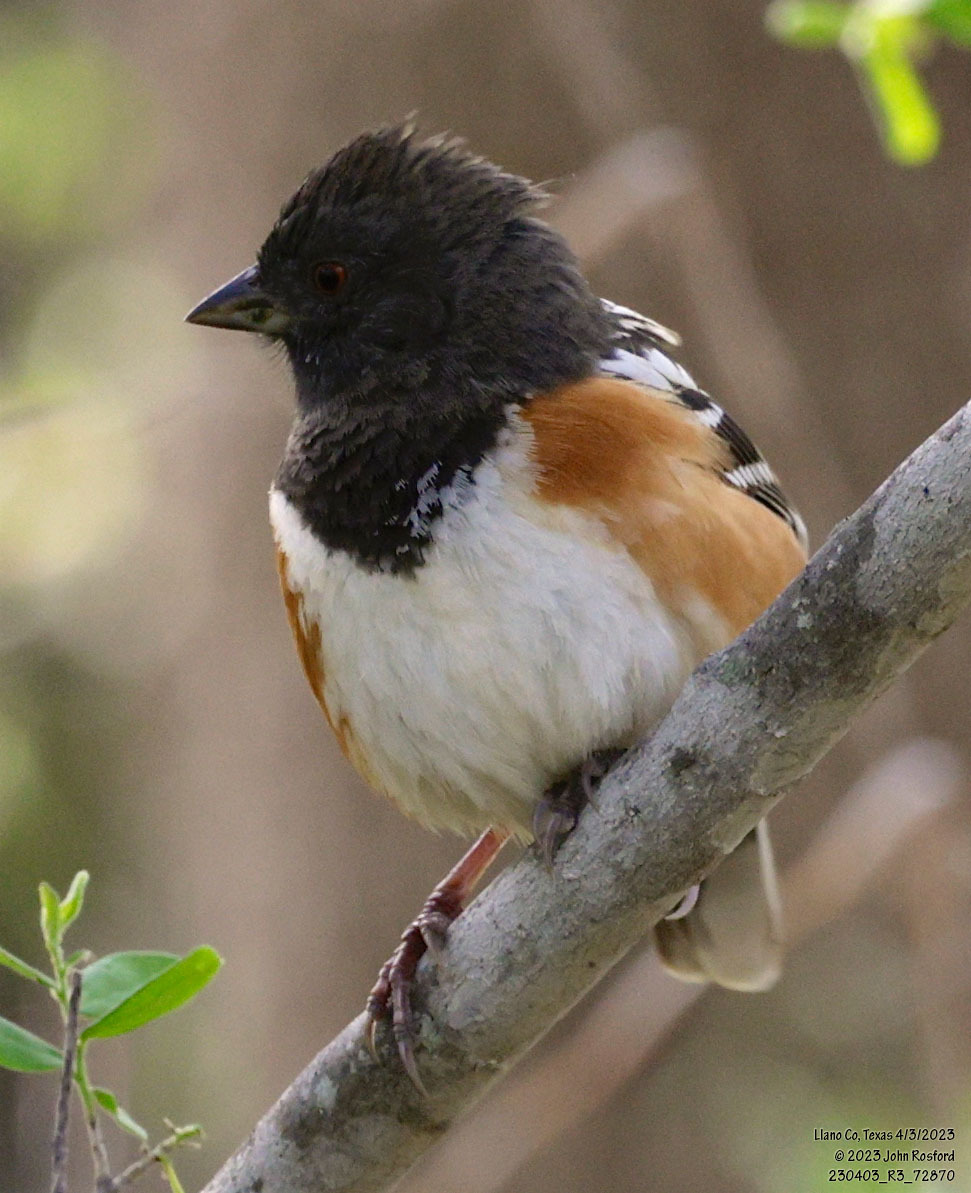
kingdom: Animalia
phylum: Chordata
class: Aves
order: Passeriformes
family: Passerellidae
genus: Pipilo
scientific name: Pipilo maculatus
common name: Spotted towhee
